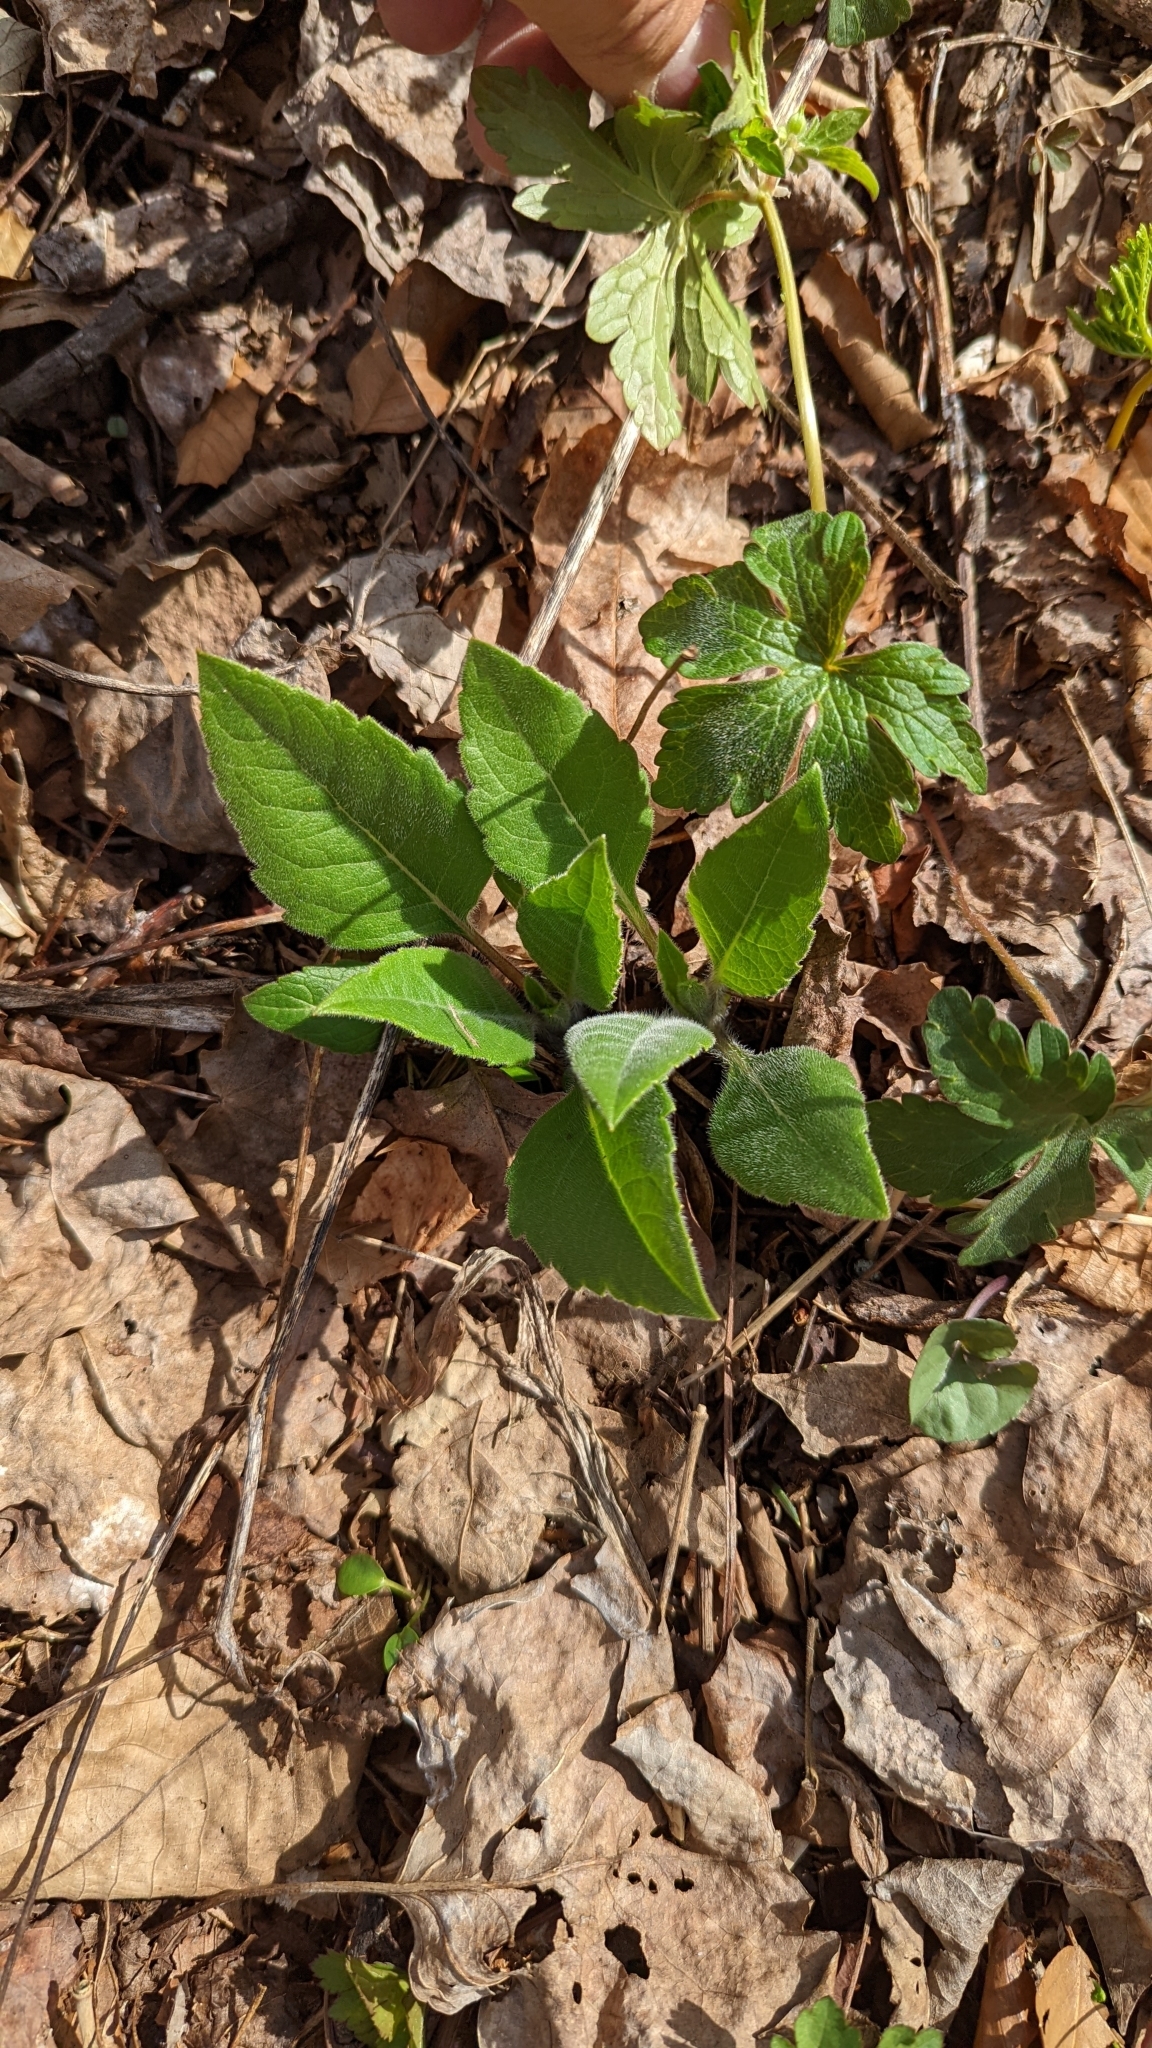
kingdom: Plantae
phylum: Tracheophyta
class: Magnoliopsida
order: Asterales
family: Asteraceae
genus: Silphium
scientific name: Silphium asteriscus
